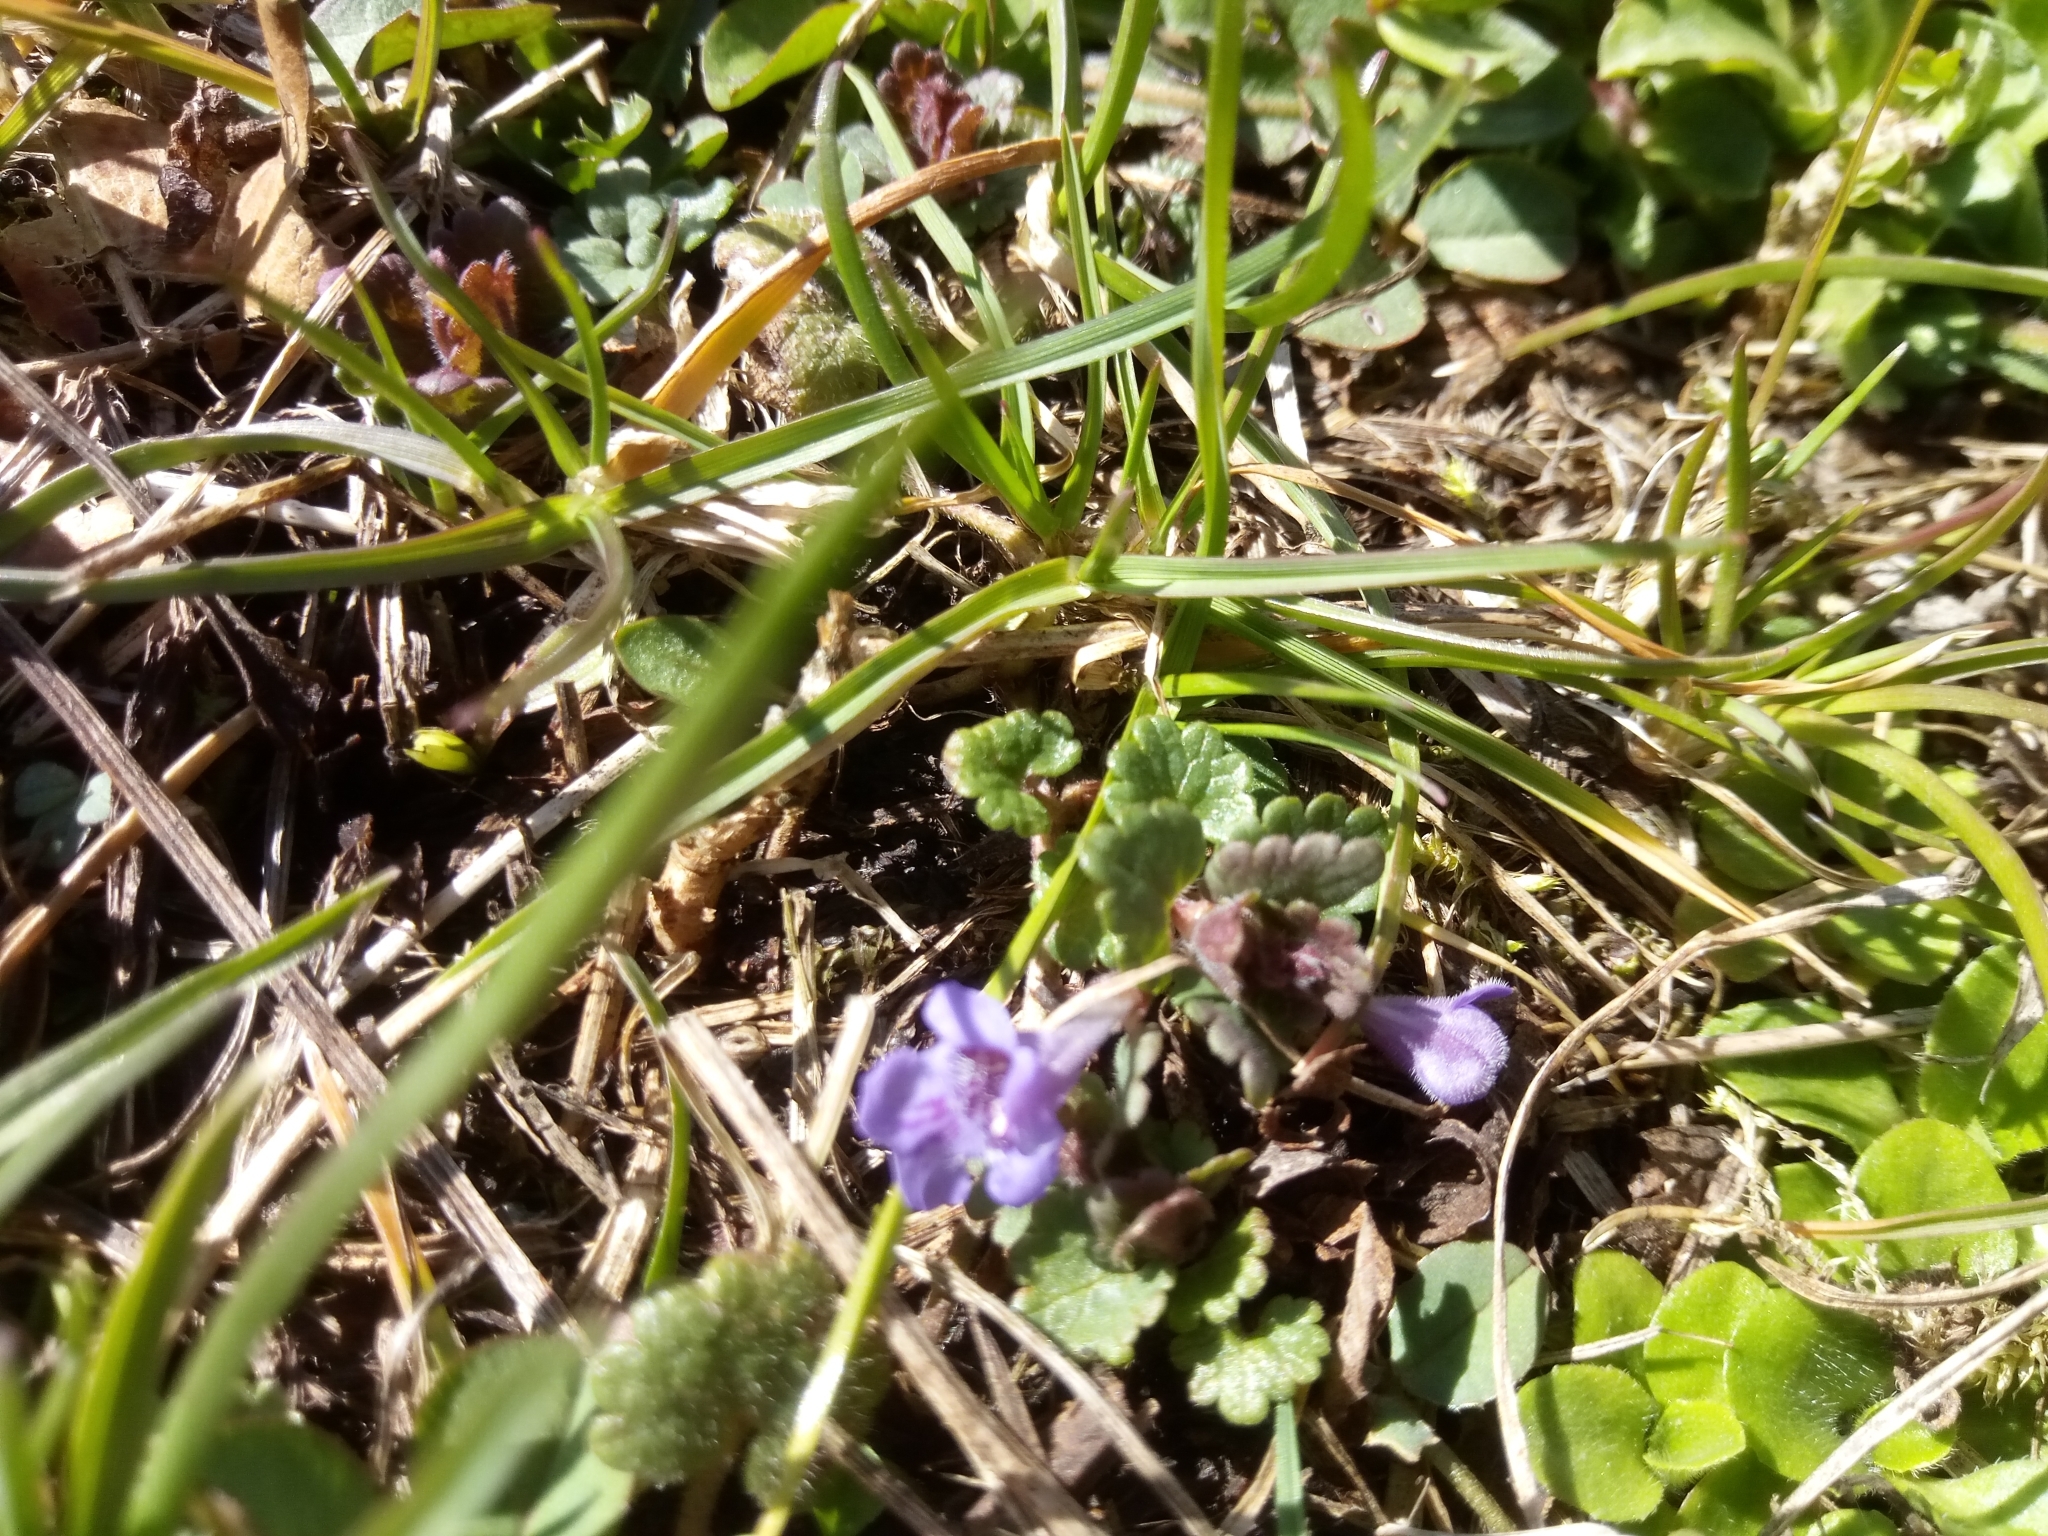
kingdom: Plantae
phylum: Tracheophyta
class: Magnoliopsida
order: Lamiales
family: Lamiaceae
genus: Glechoma
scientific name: Glechoma hederacea
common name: Ground ivy
